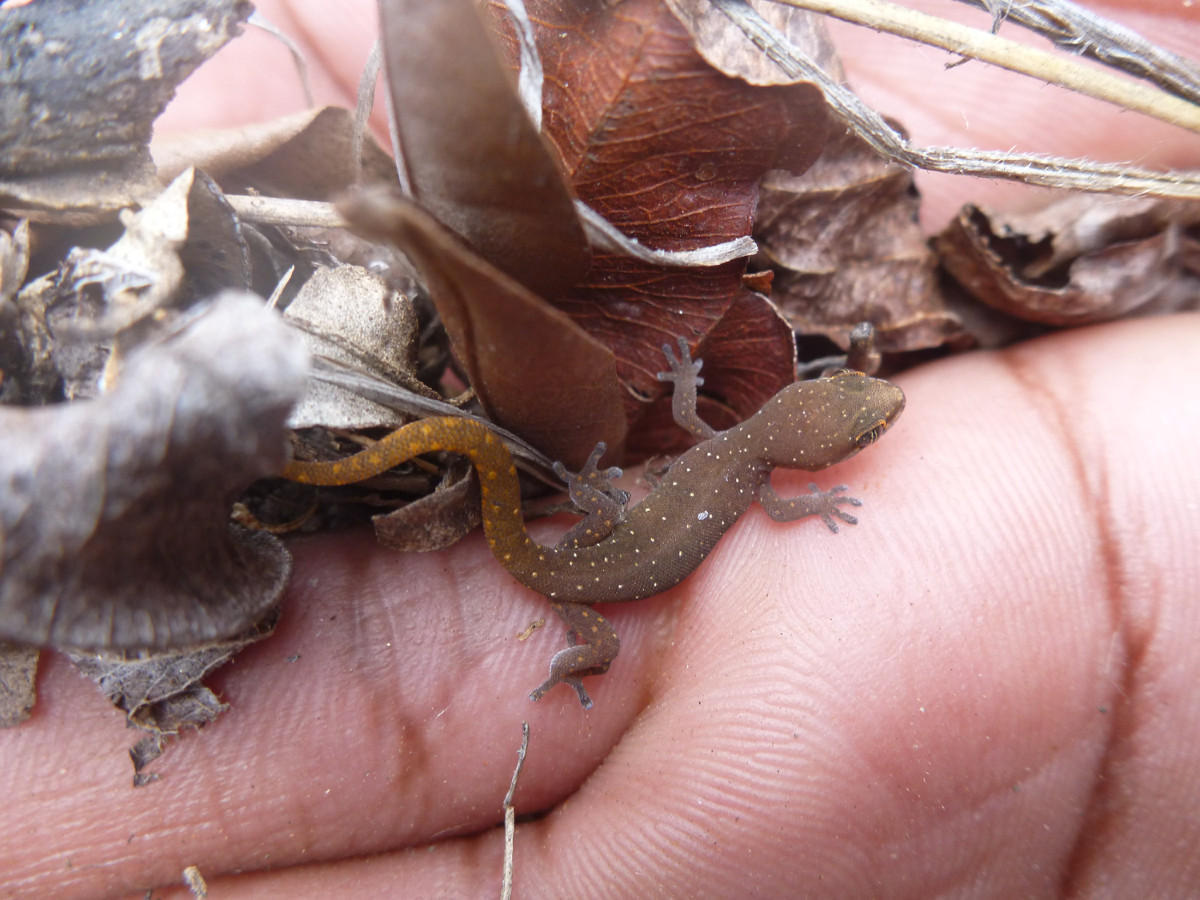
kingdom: Animalia
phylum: Chordata
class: Squamata
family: Gekkonidae
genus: Pachydactylus
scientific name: Pachydactylus punctatus
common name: Pointed thick-toed gecko
